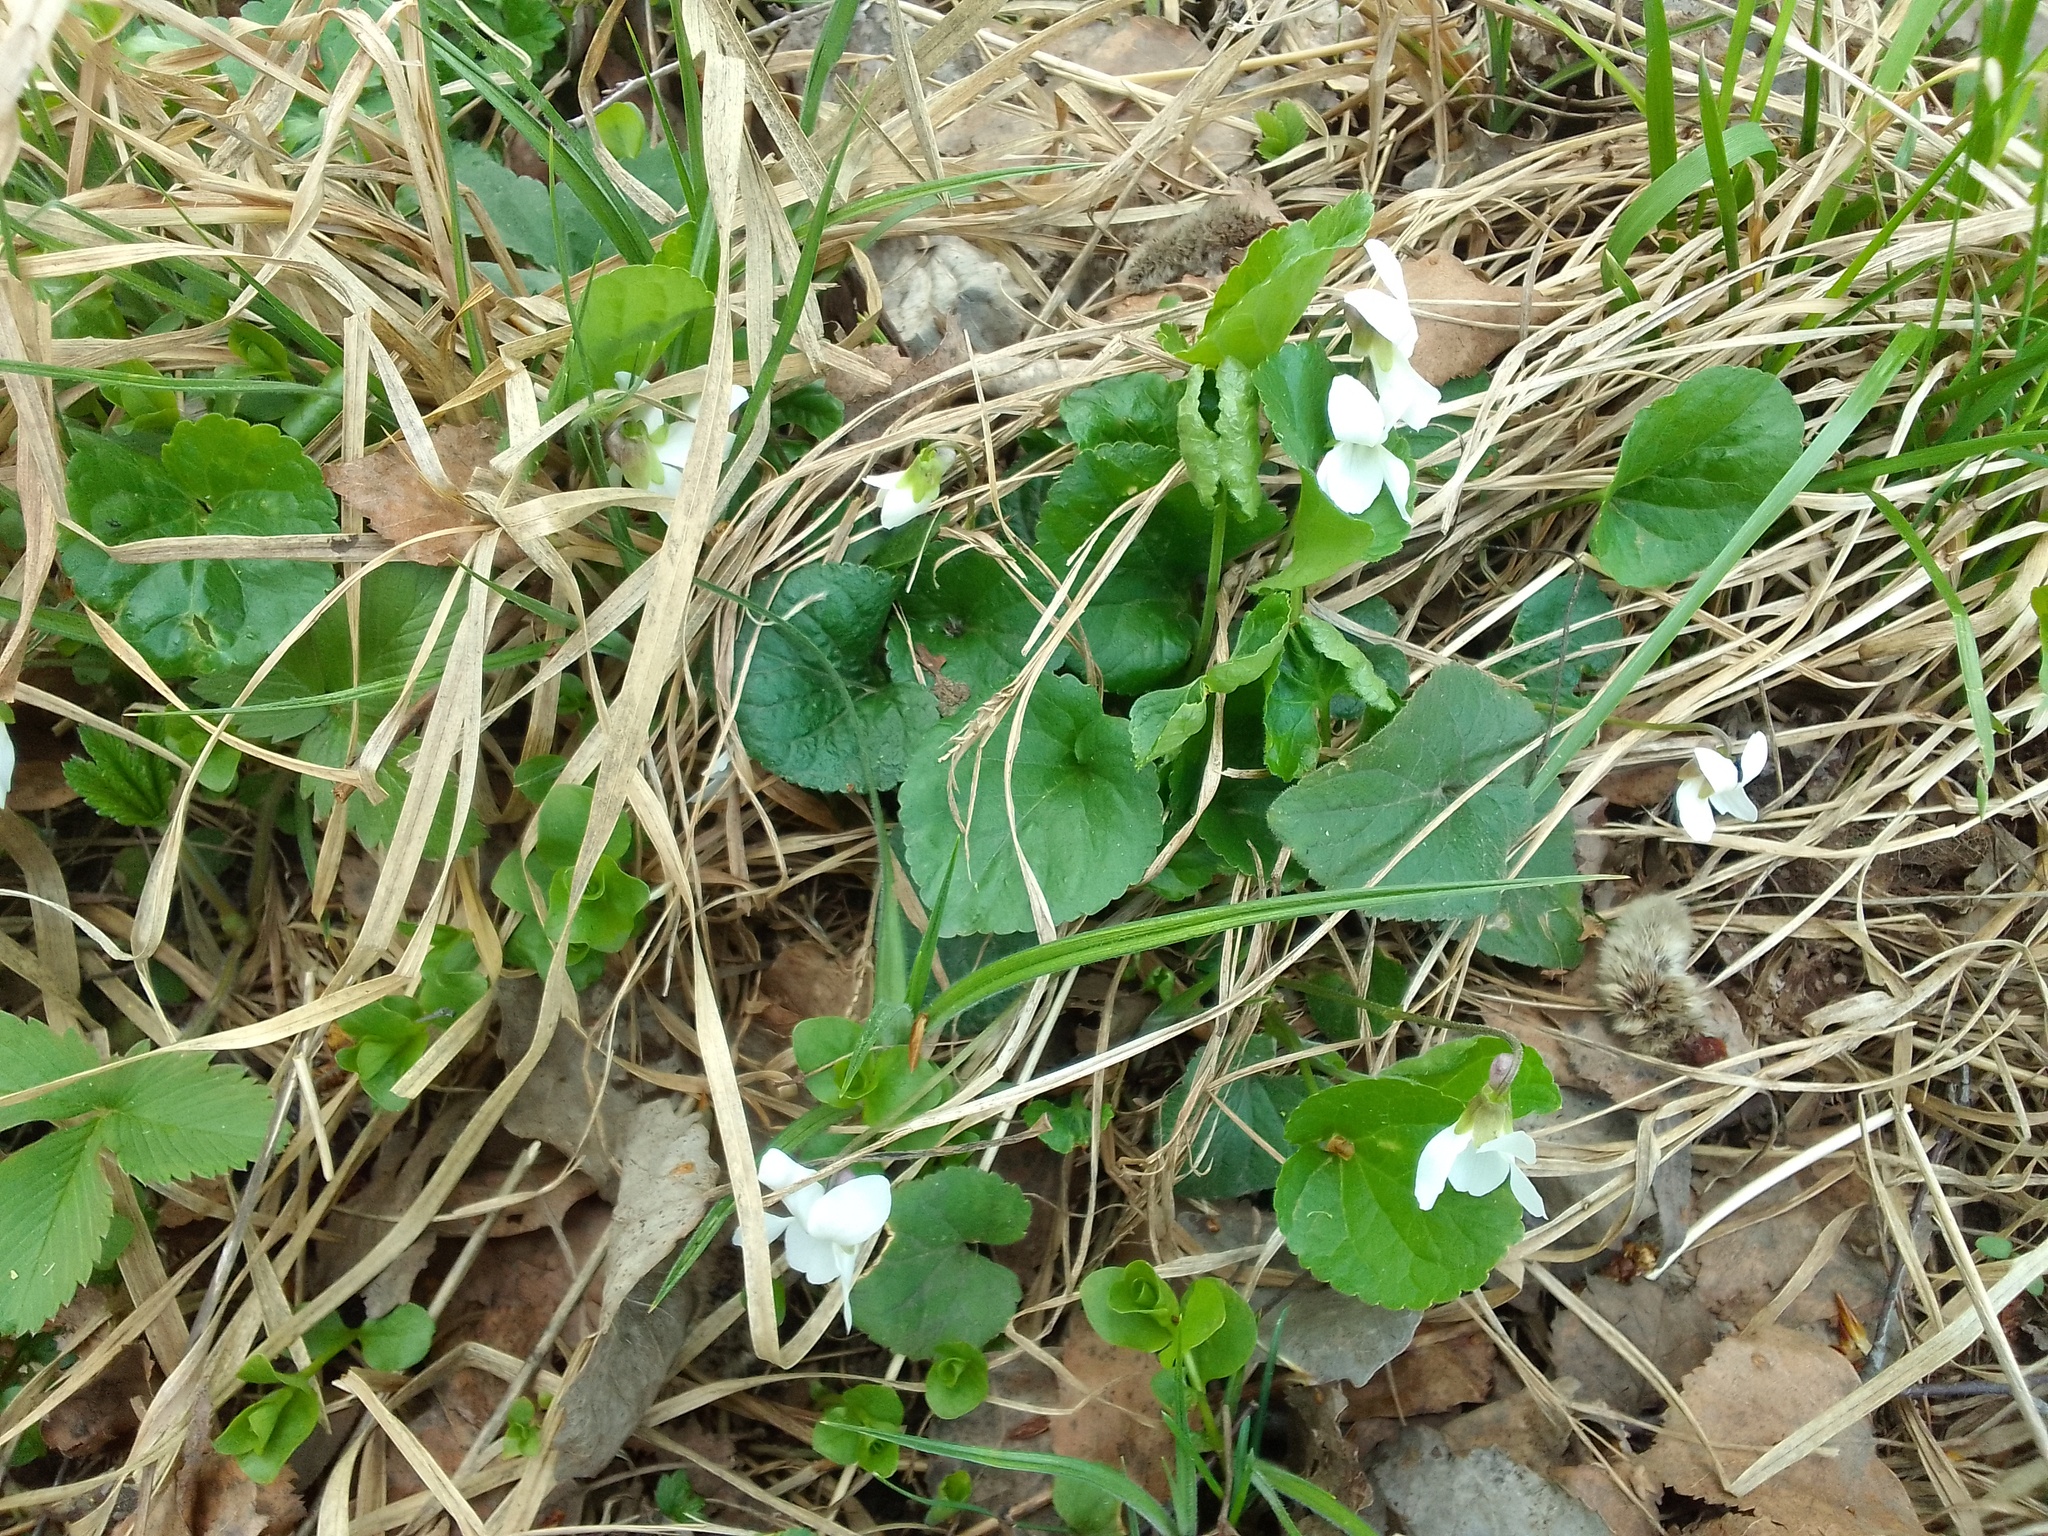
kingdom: Plantae
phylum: Tracheophyta
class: Magnoliopsida
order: Malpighiales
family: Violaceae
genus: Viola
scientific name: Viola odorata
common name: Sweet violet
